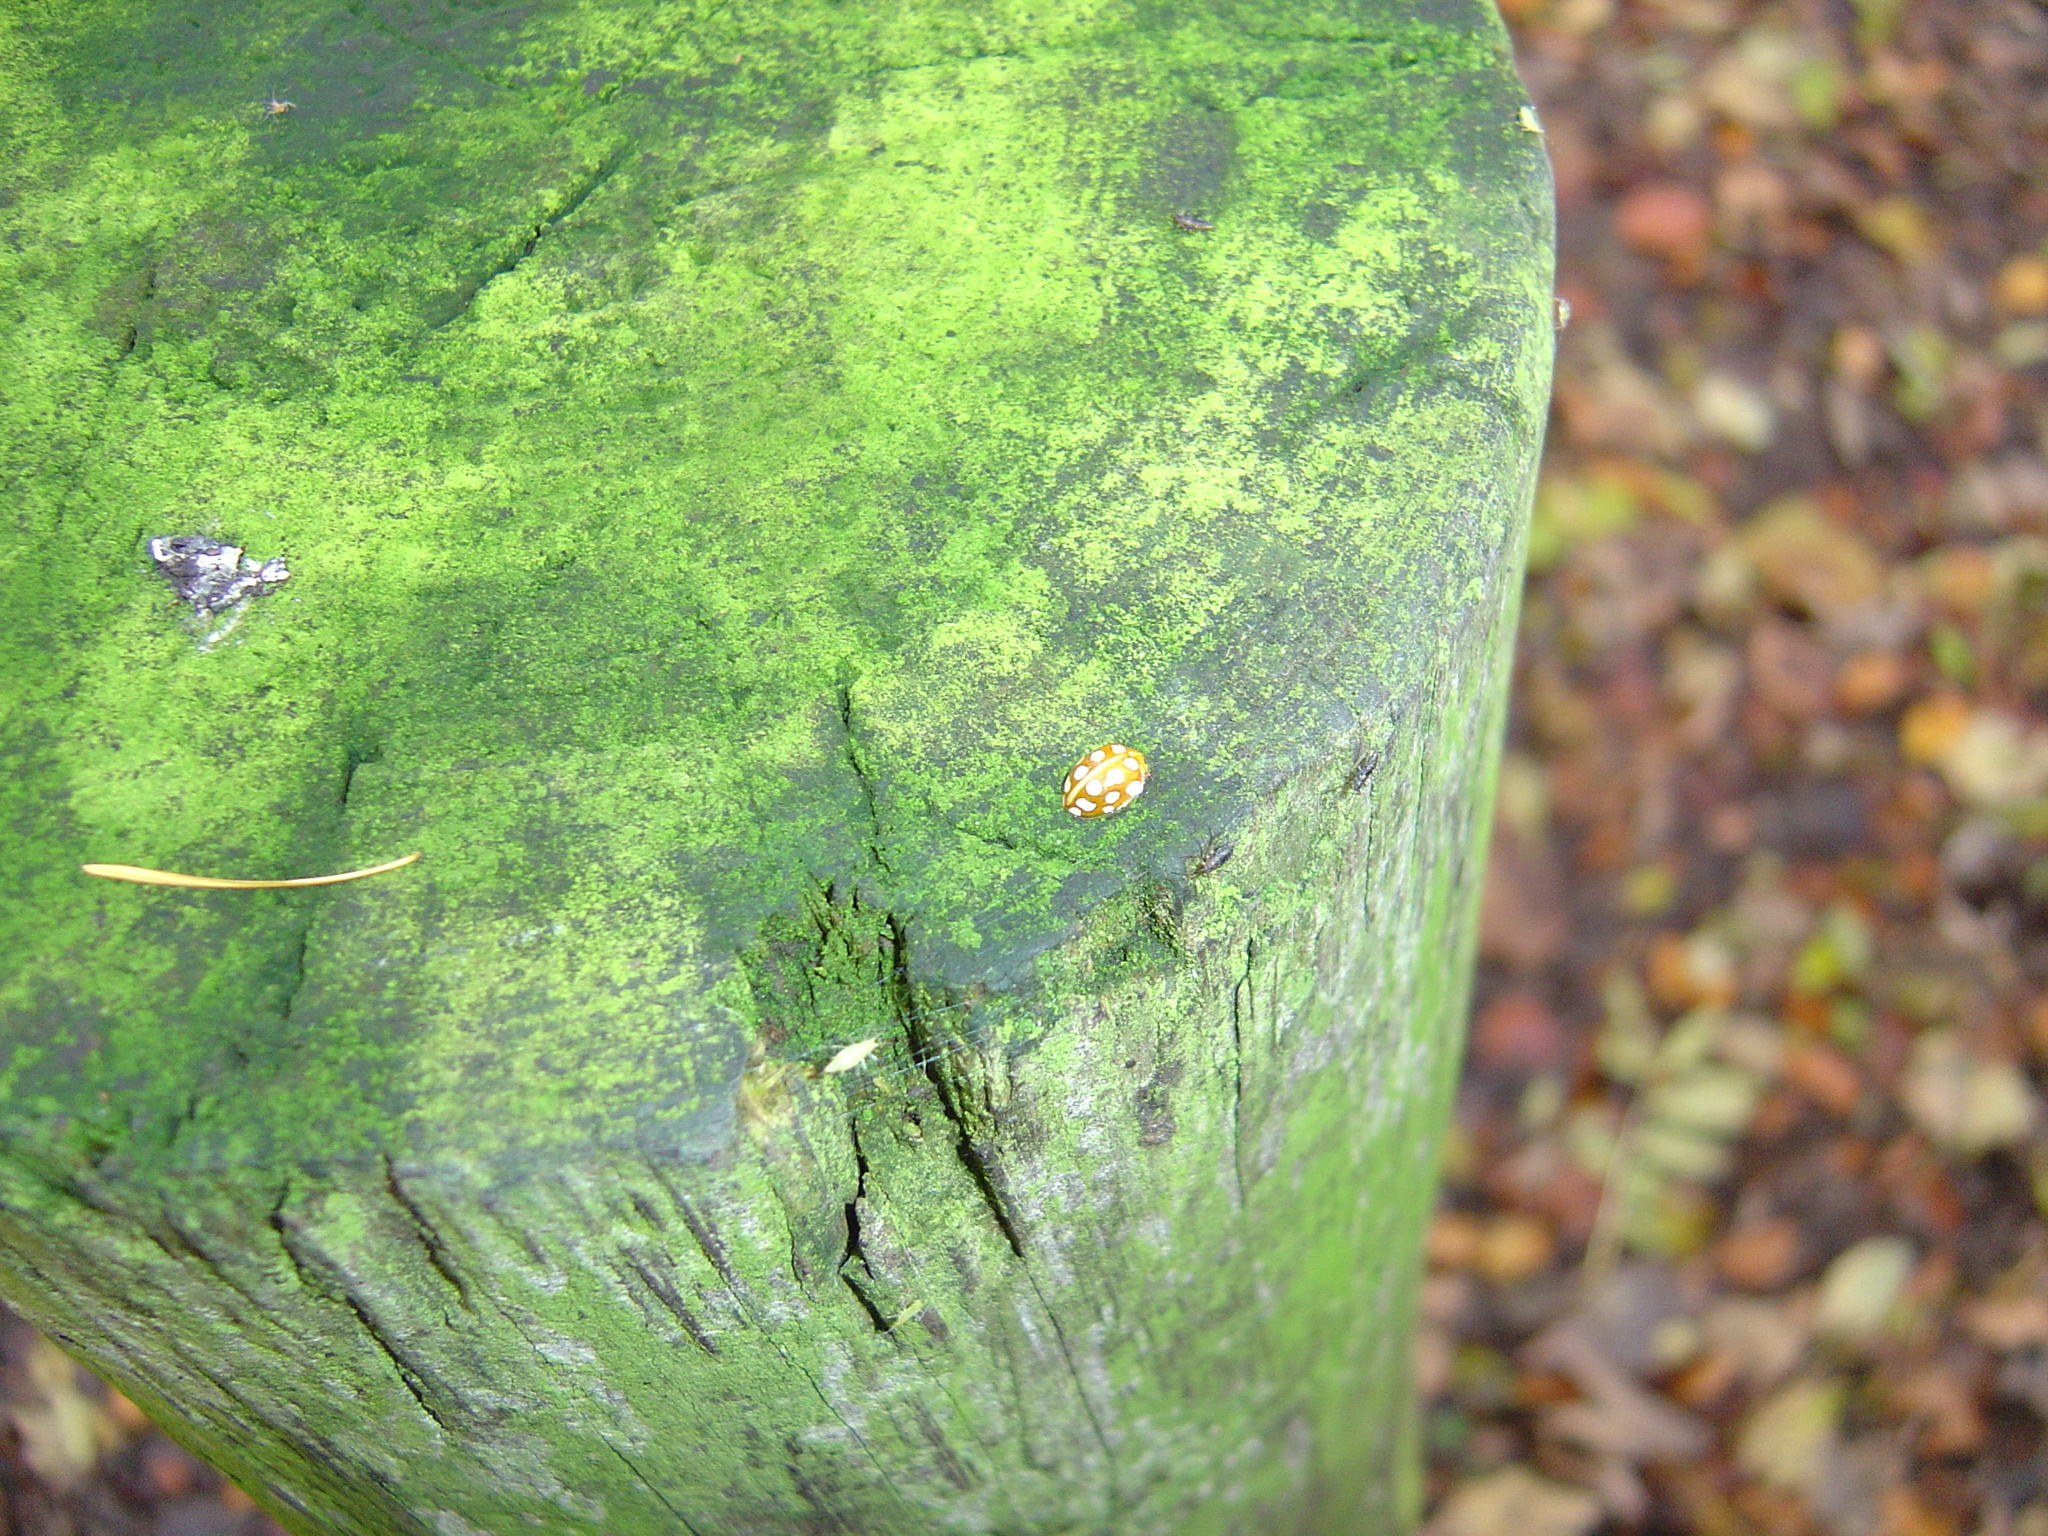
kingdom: Animalia
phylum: Arthropoda
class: Insecta
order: Coleoptera
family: Coccinellidae
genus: Halyzia
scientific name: Halyzia sedecimguttata
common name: Orange ladybird
